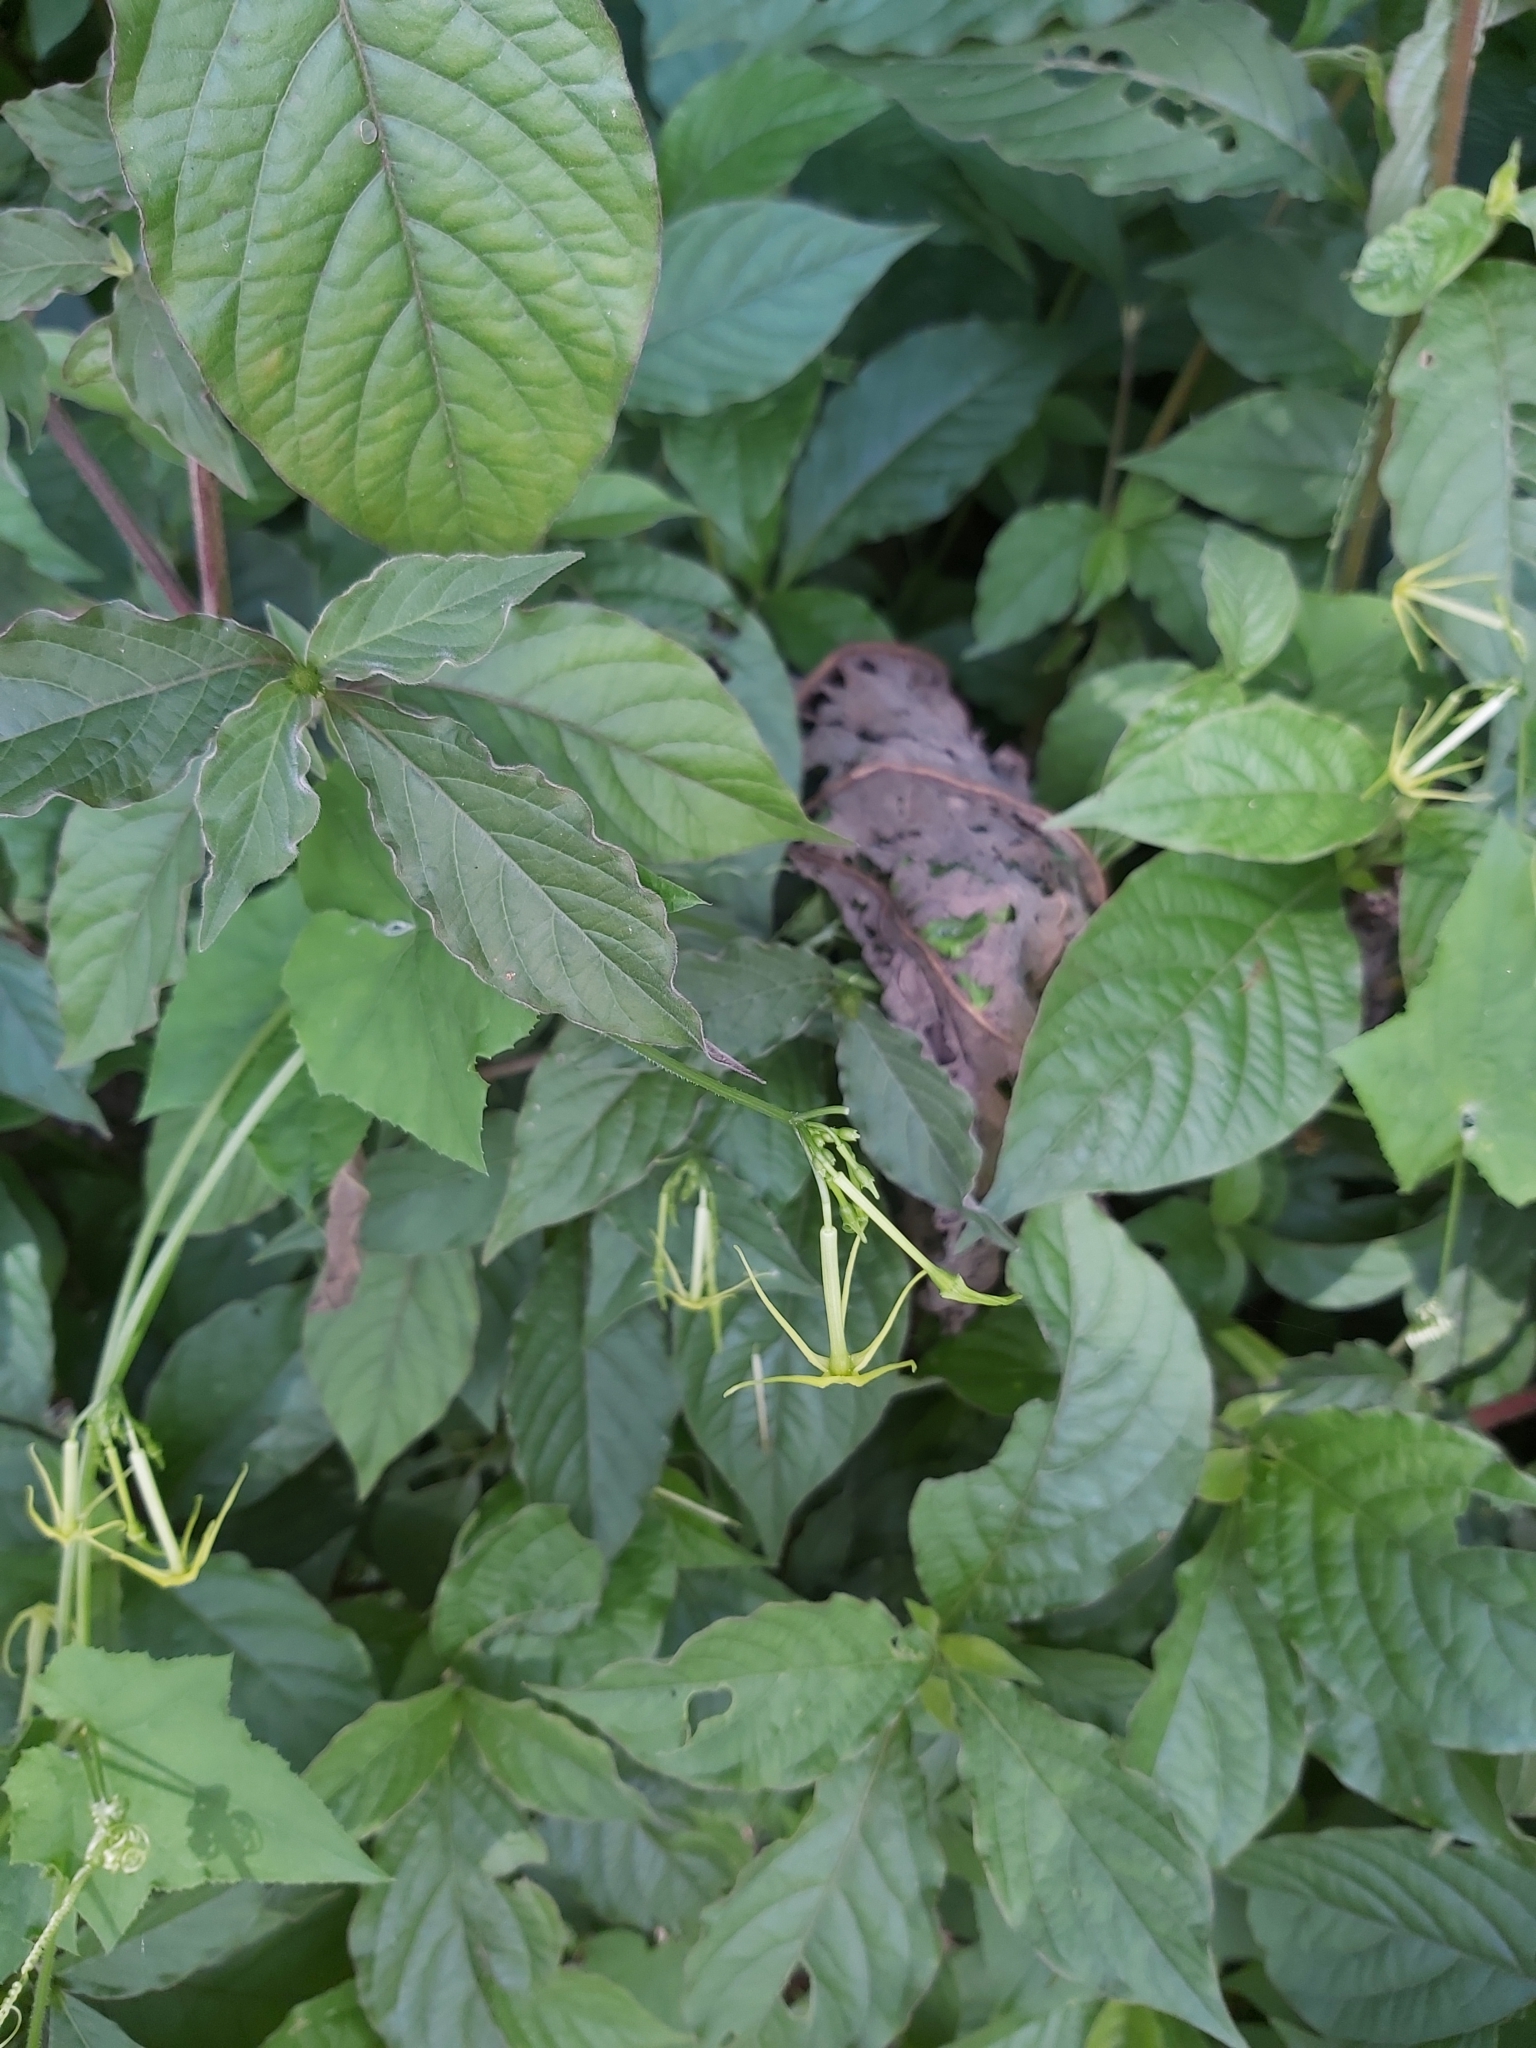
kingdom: Plantae
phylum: Tracheophyta
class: Magnoliopsida
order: Cucurbitales
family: Cucurbitaceae
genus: Cyclanthera
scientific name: Cyclanthera carthagenensis
